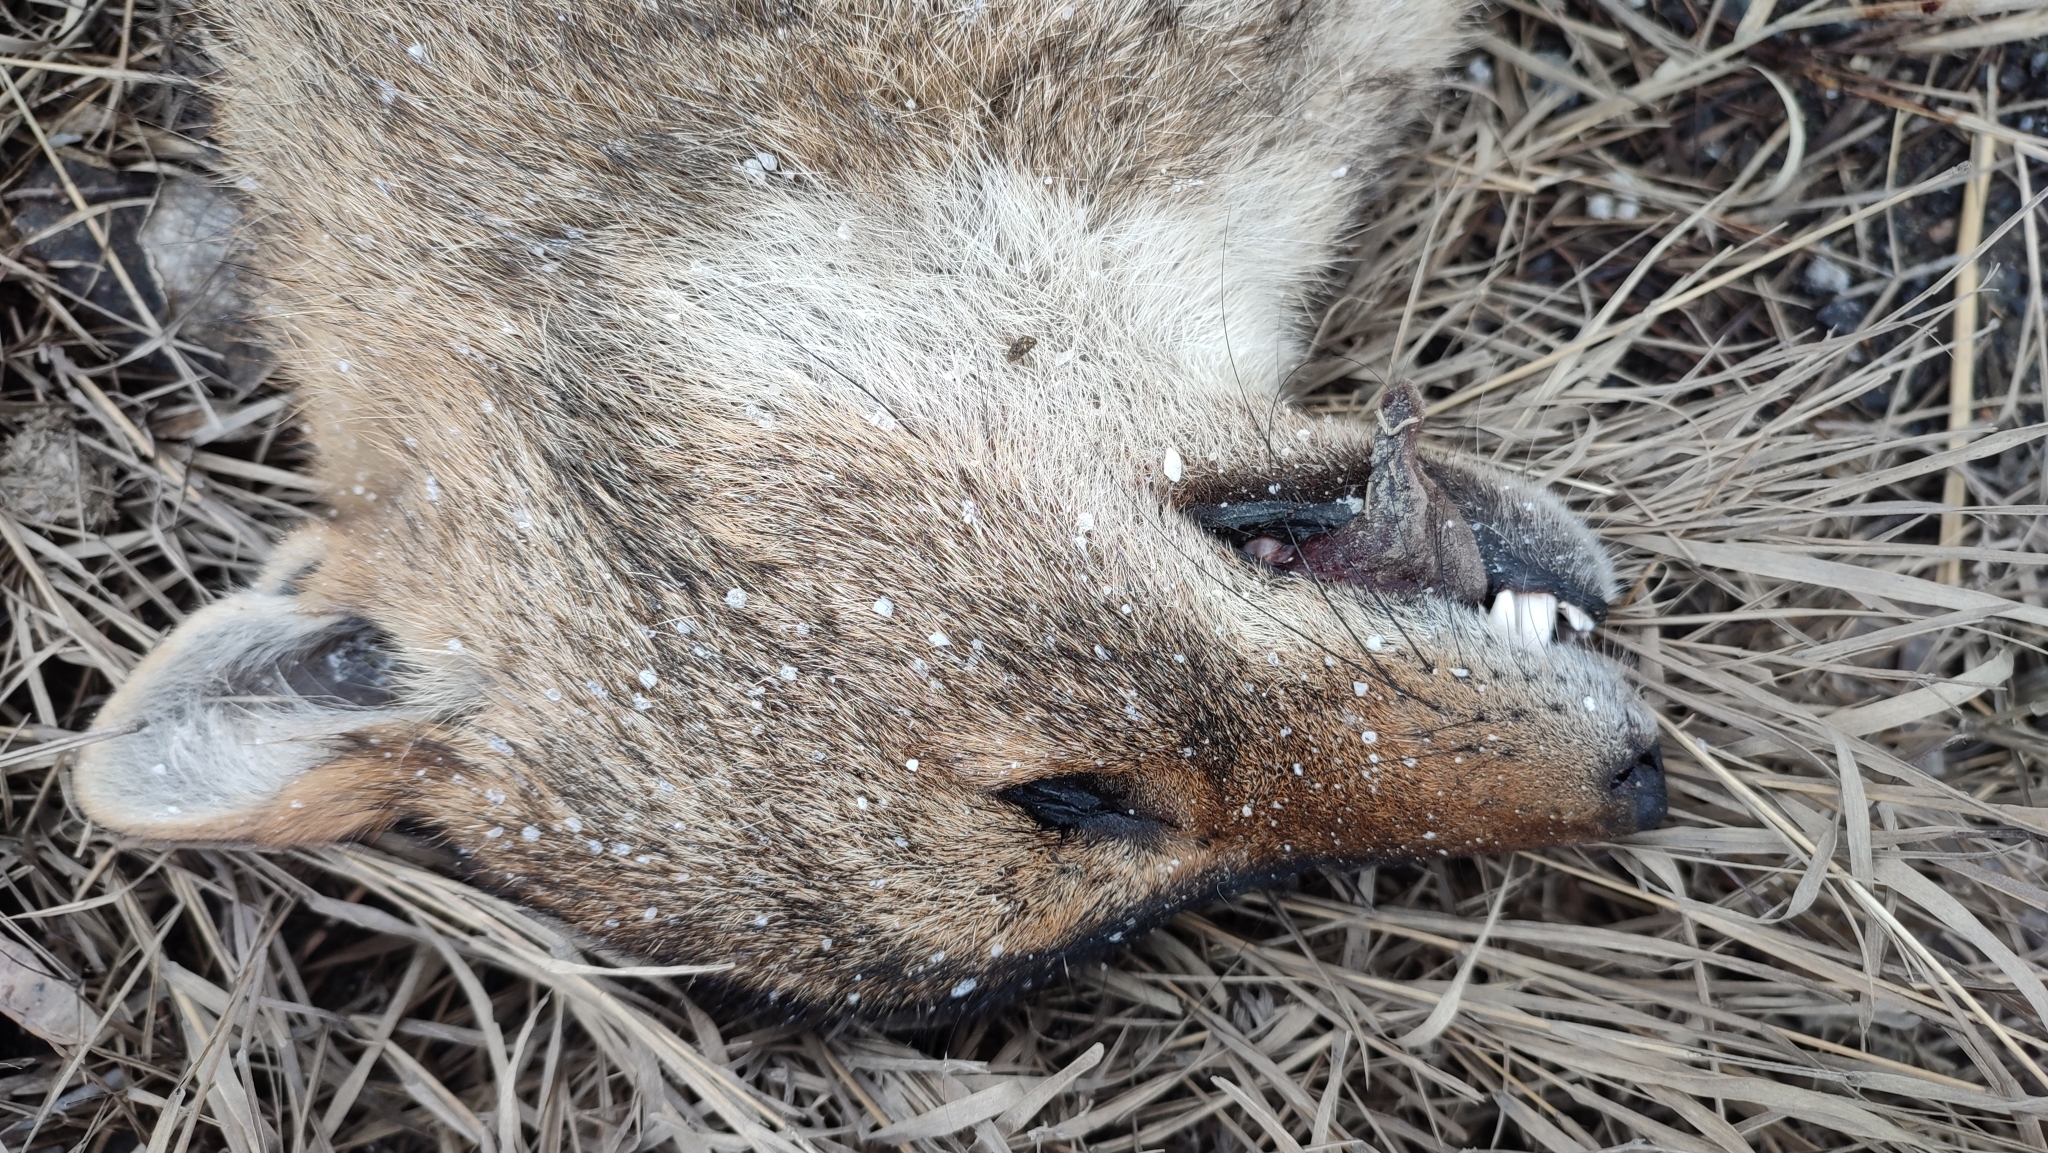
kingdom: Animalia
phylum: Chordata
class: Mammalia
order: Carnivora
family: Canidae
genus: Canis
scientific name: Canis aureus
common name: Golden jackal
